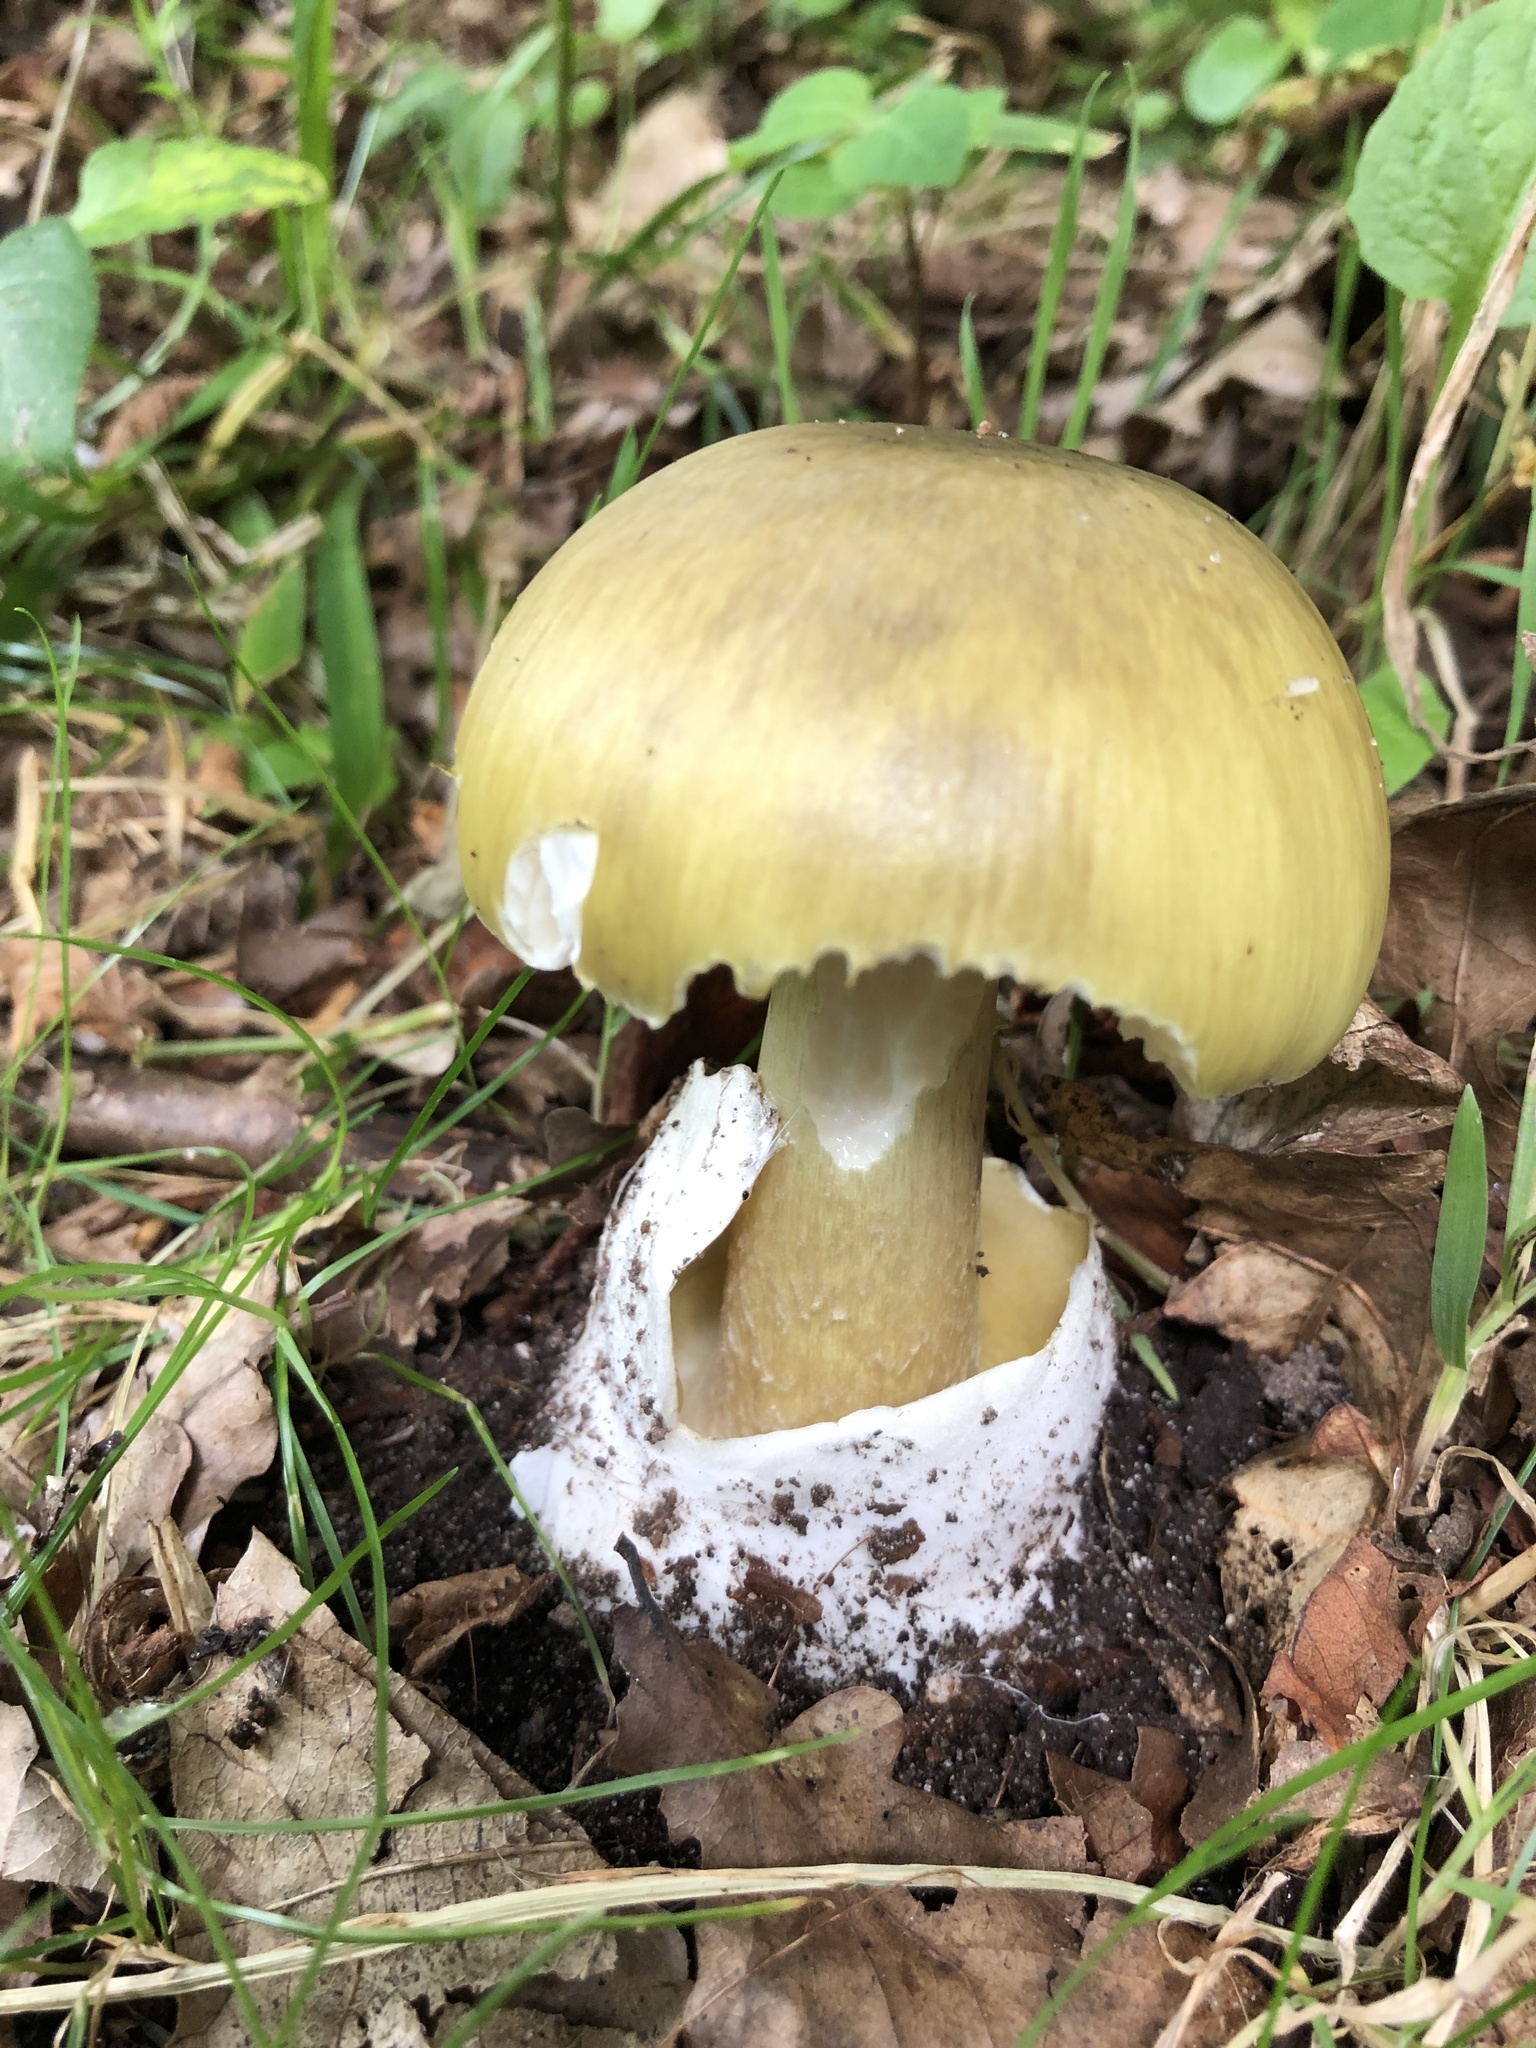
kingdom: Fungi
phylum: Basidiomycota
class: Agaricomycetes
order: Agaricales
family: Amanitaceae
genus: Amanita
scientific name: Amanita phalloides
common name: Death cap
